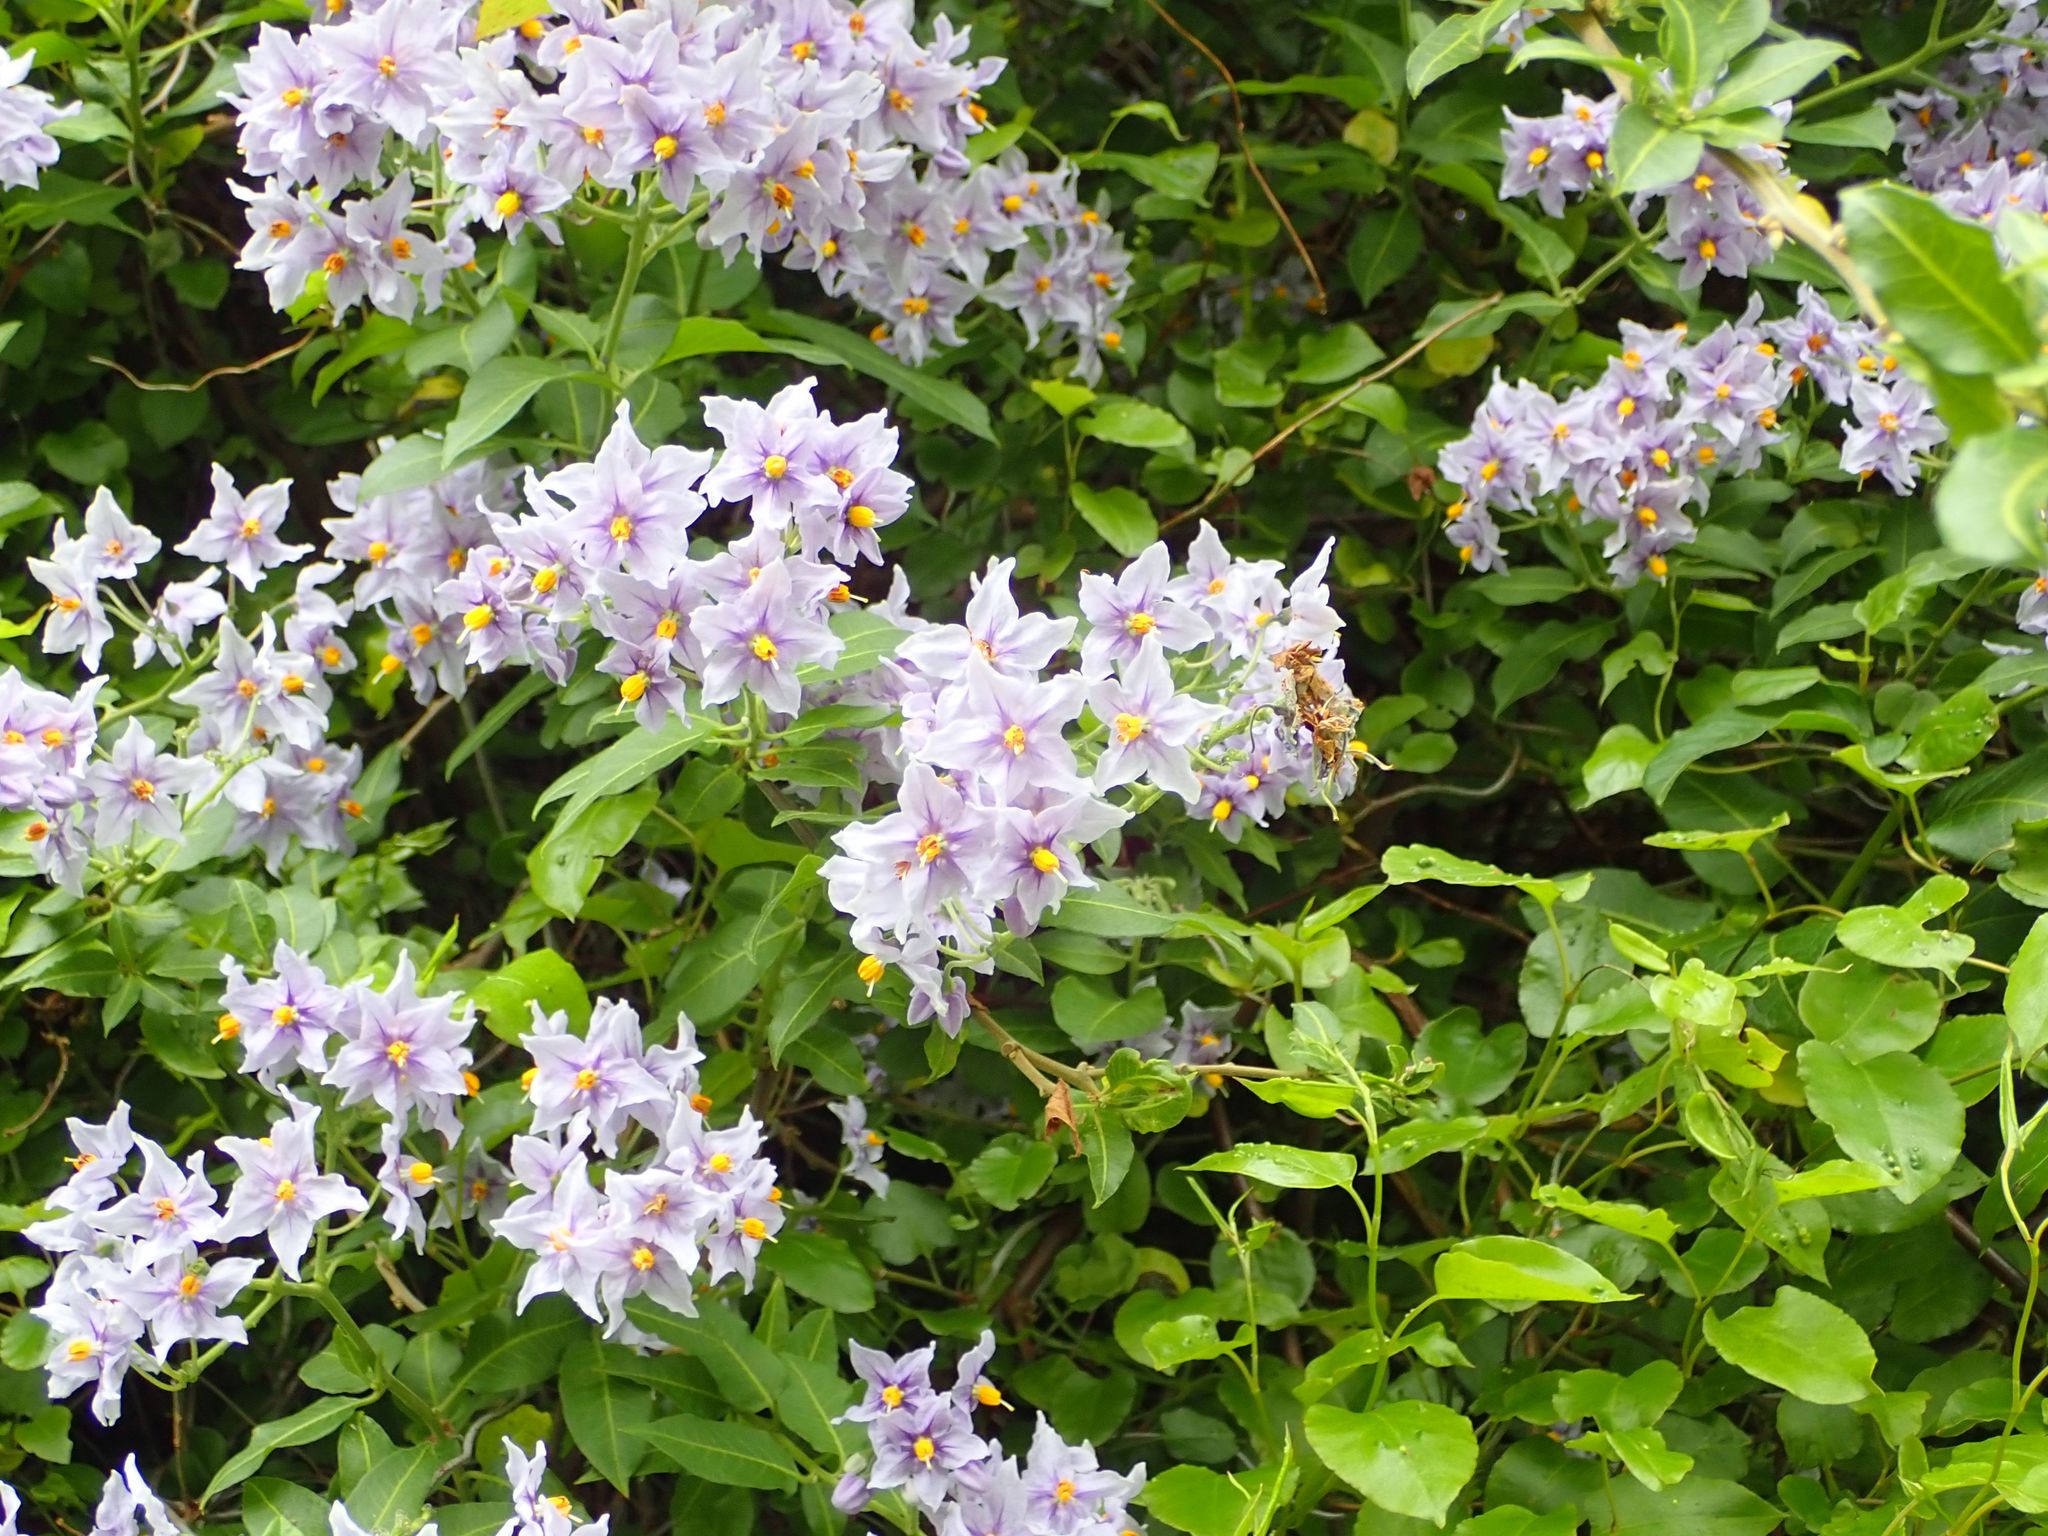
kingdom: Plantae
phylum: Tracheophyta
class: Magnoliopsida
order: Solanales
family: Solanaceae
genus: Solanum
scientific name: Solanum crispum
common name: Chilean nightshade
